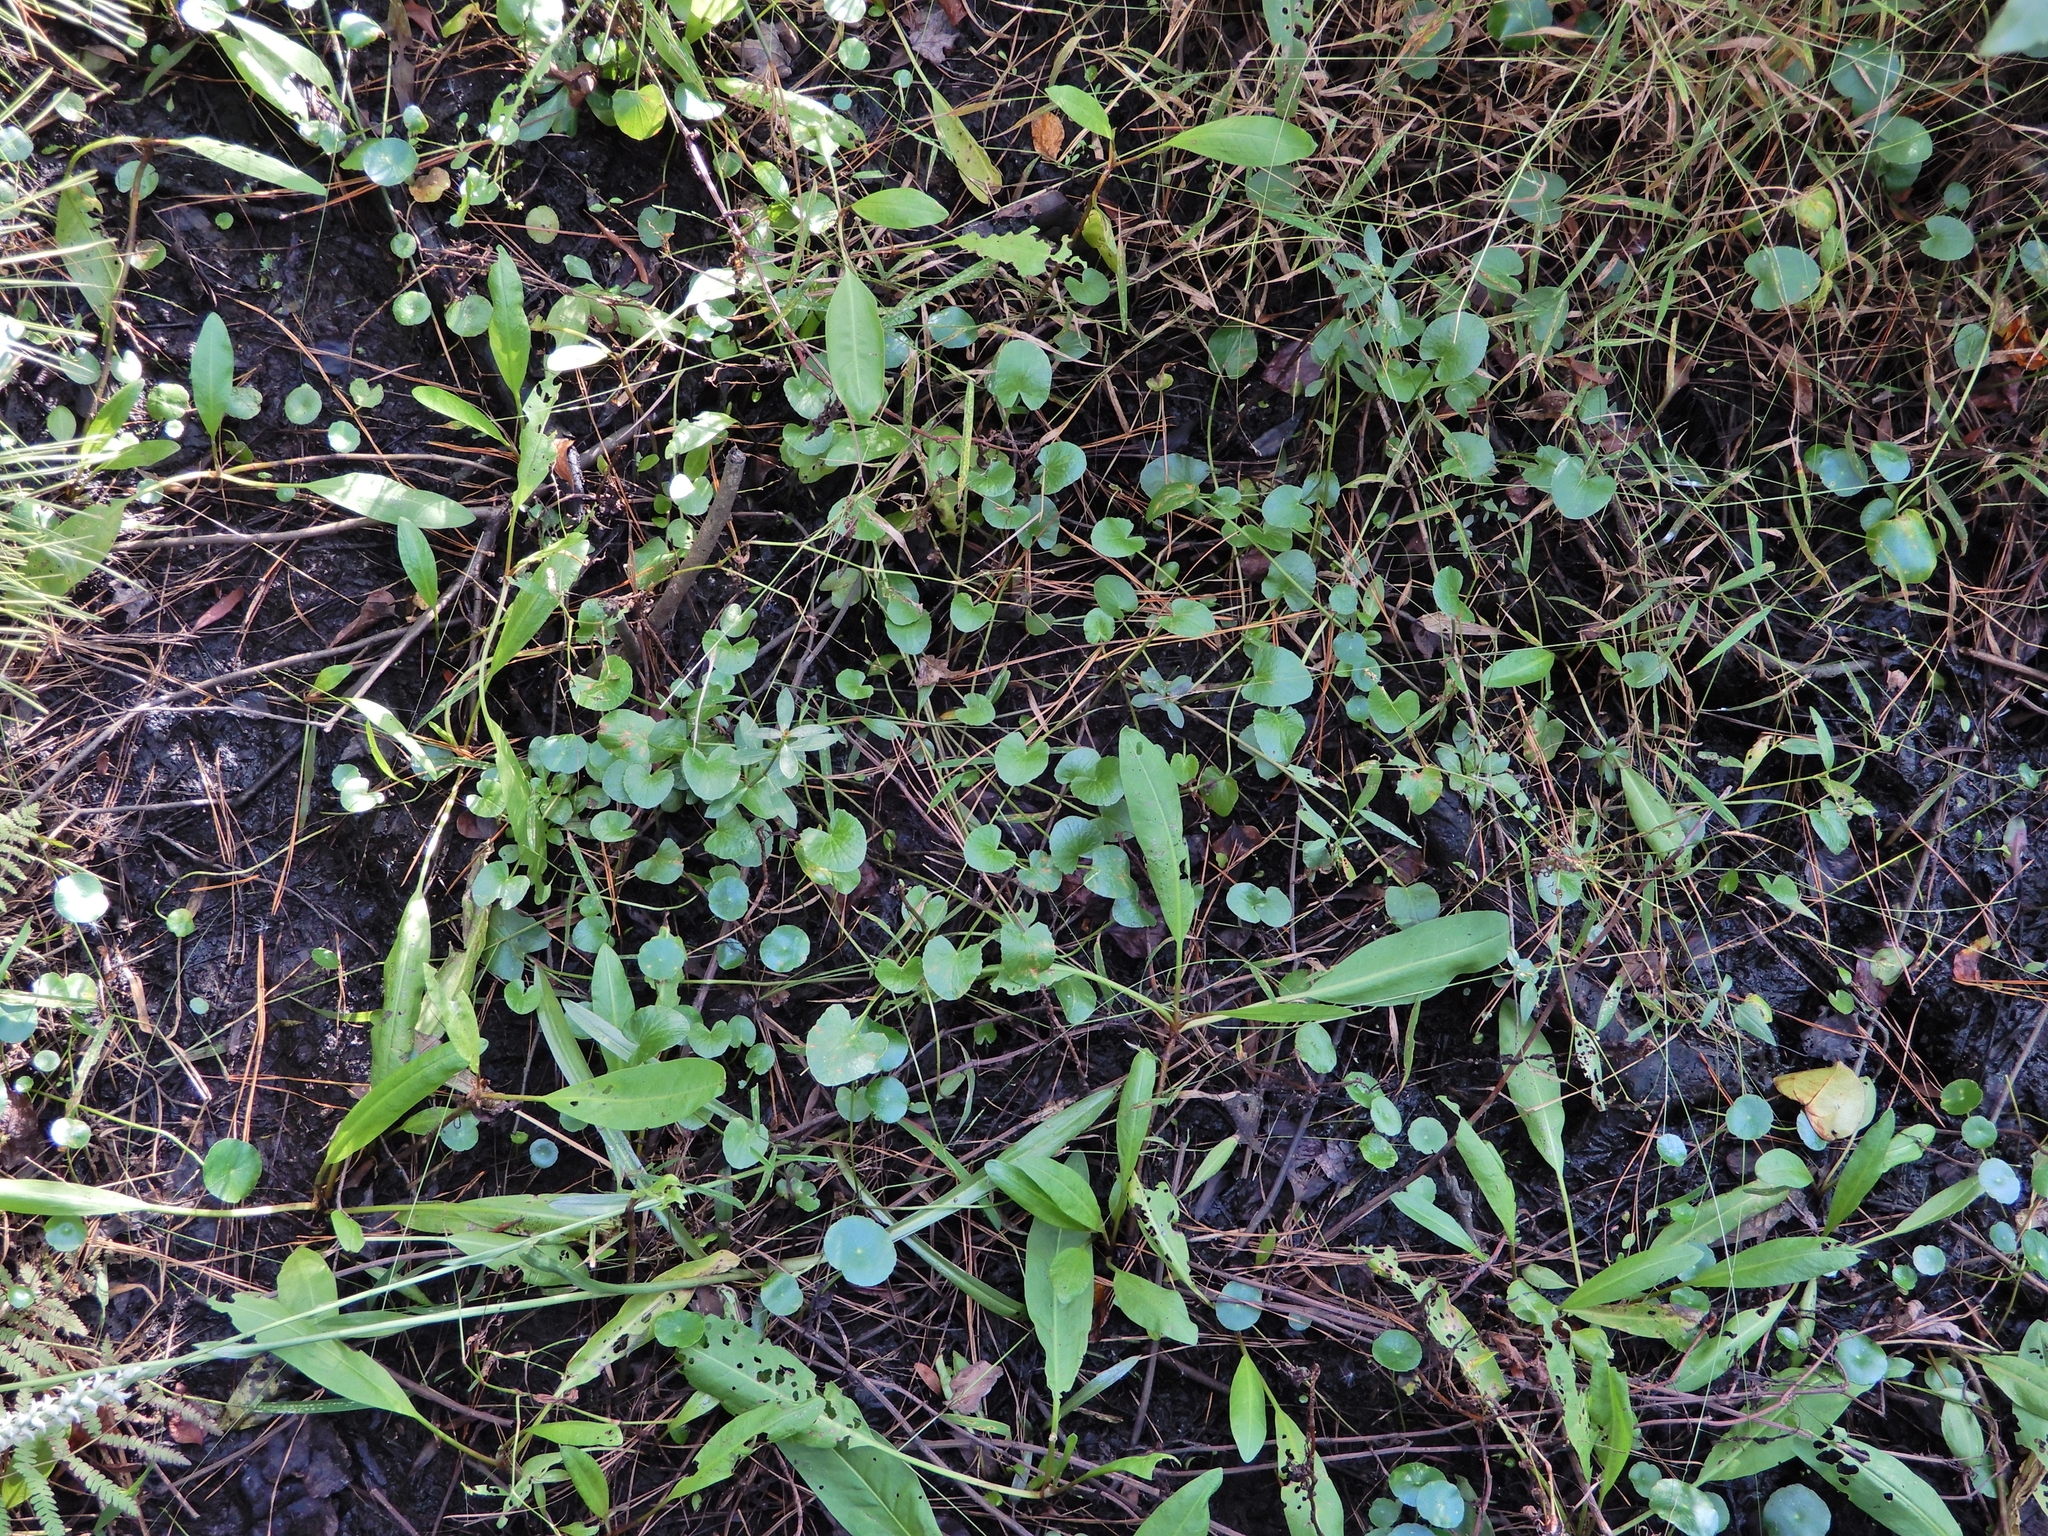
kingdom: Plantae
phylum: Tracheophyta
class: Magnoliopsida
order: Apiales
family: Apiaceae
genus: Centella
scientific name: Centella erecta
